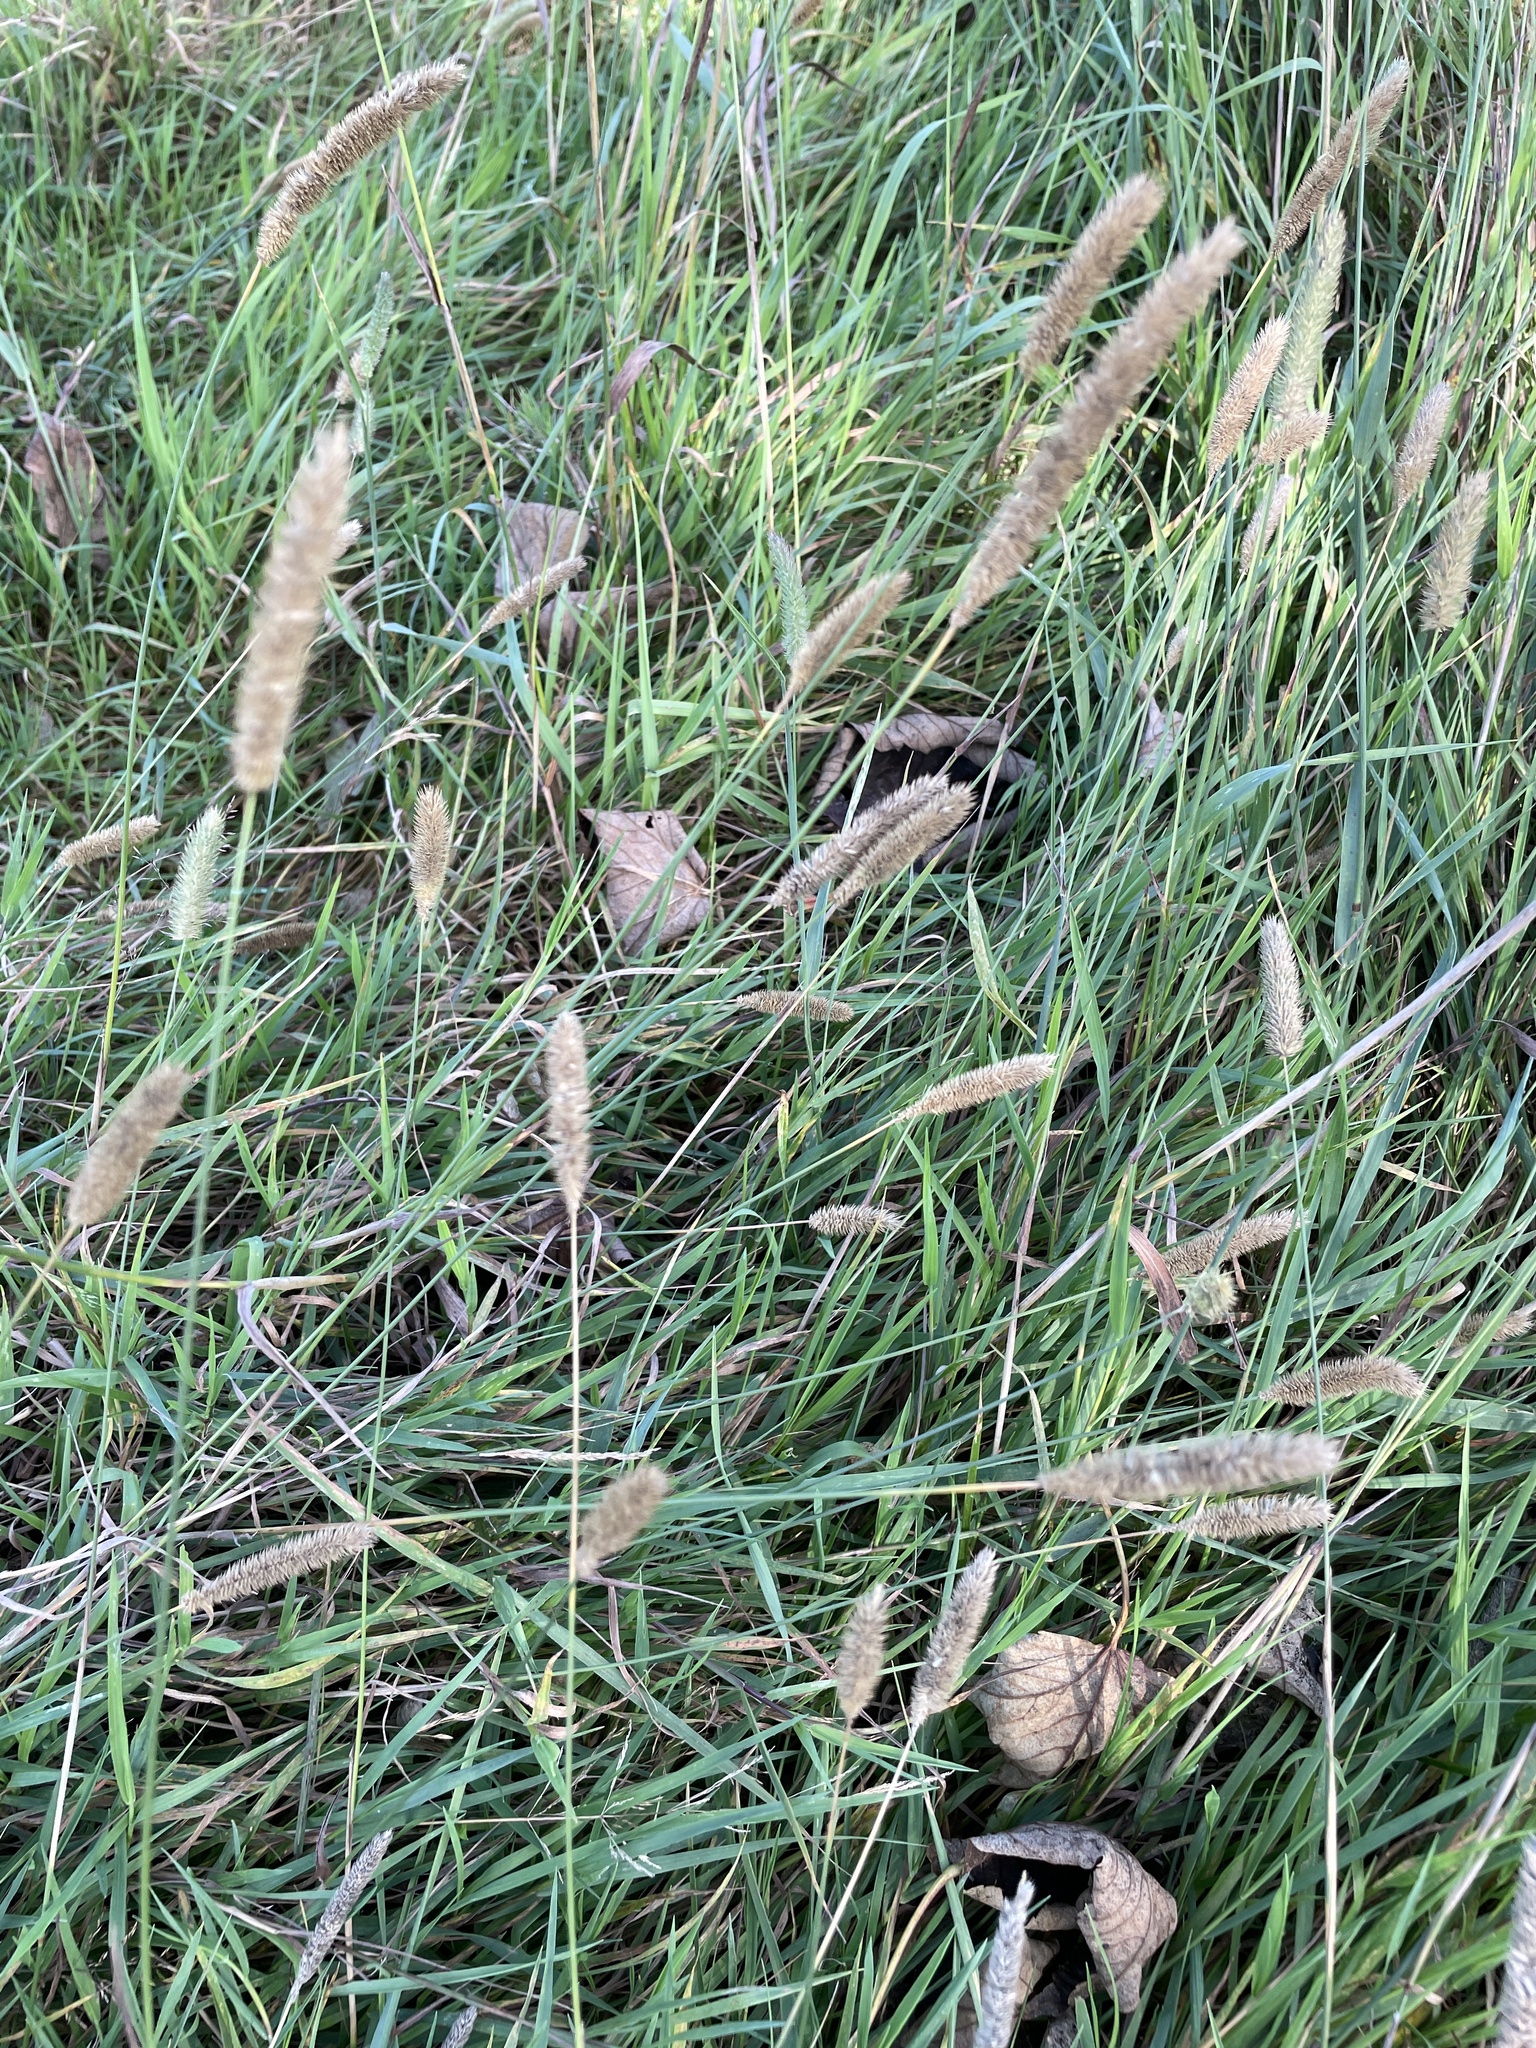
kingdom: Plantae
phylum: Tracheophyta
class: Liliopsida
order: Poales
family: Poaceae
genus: Phleum
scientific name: Phleum pratense
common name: Timothy grass
